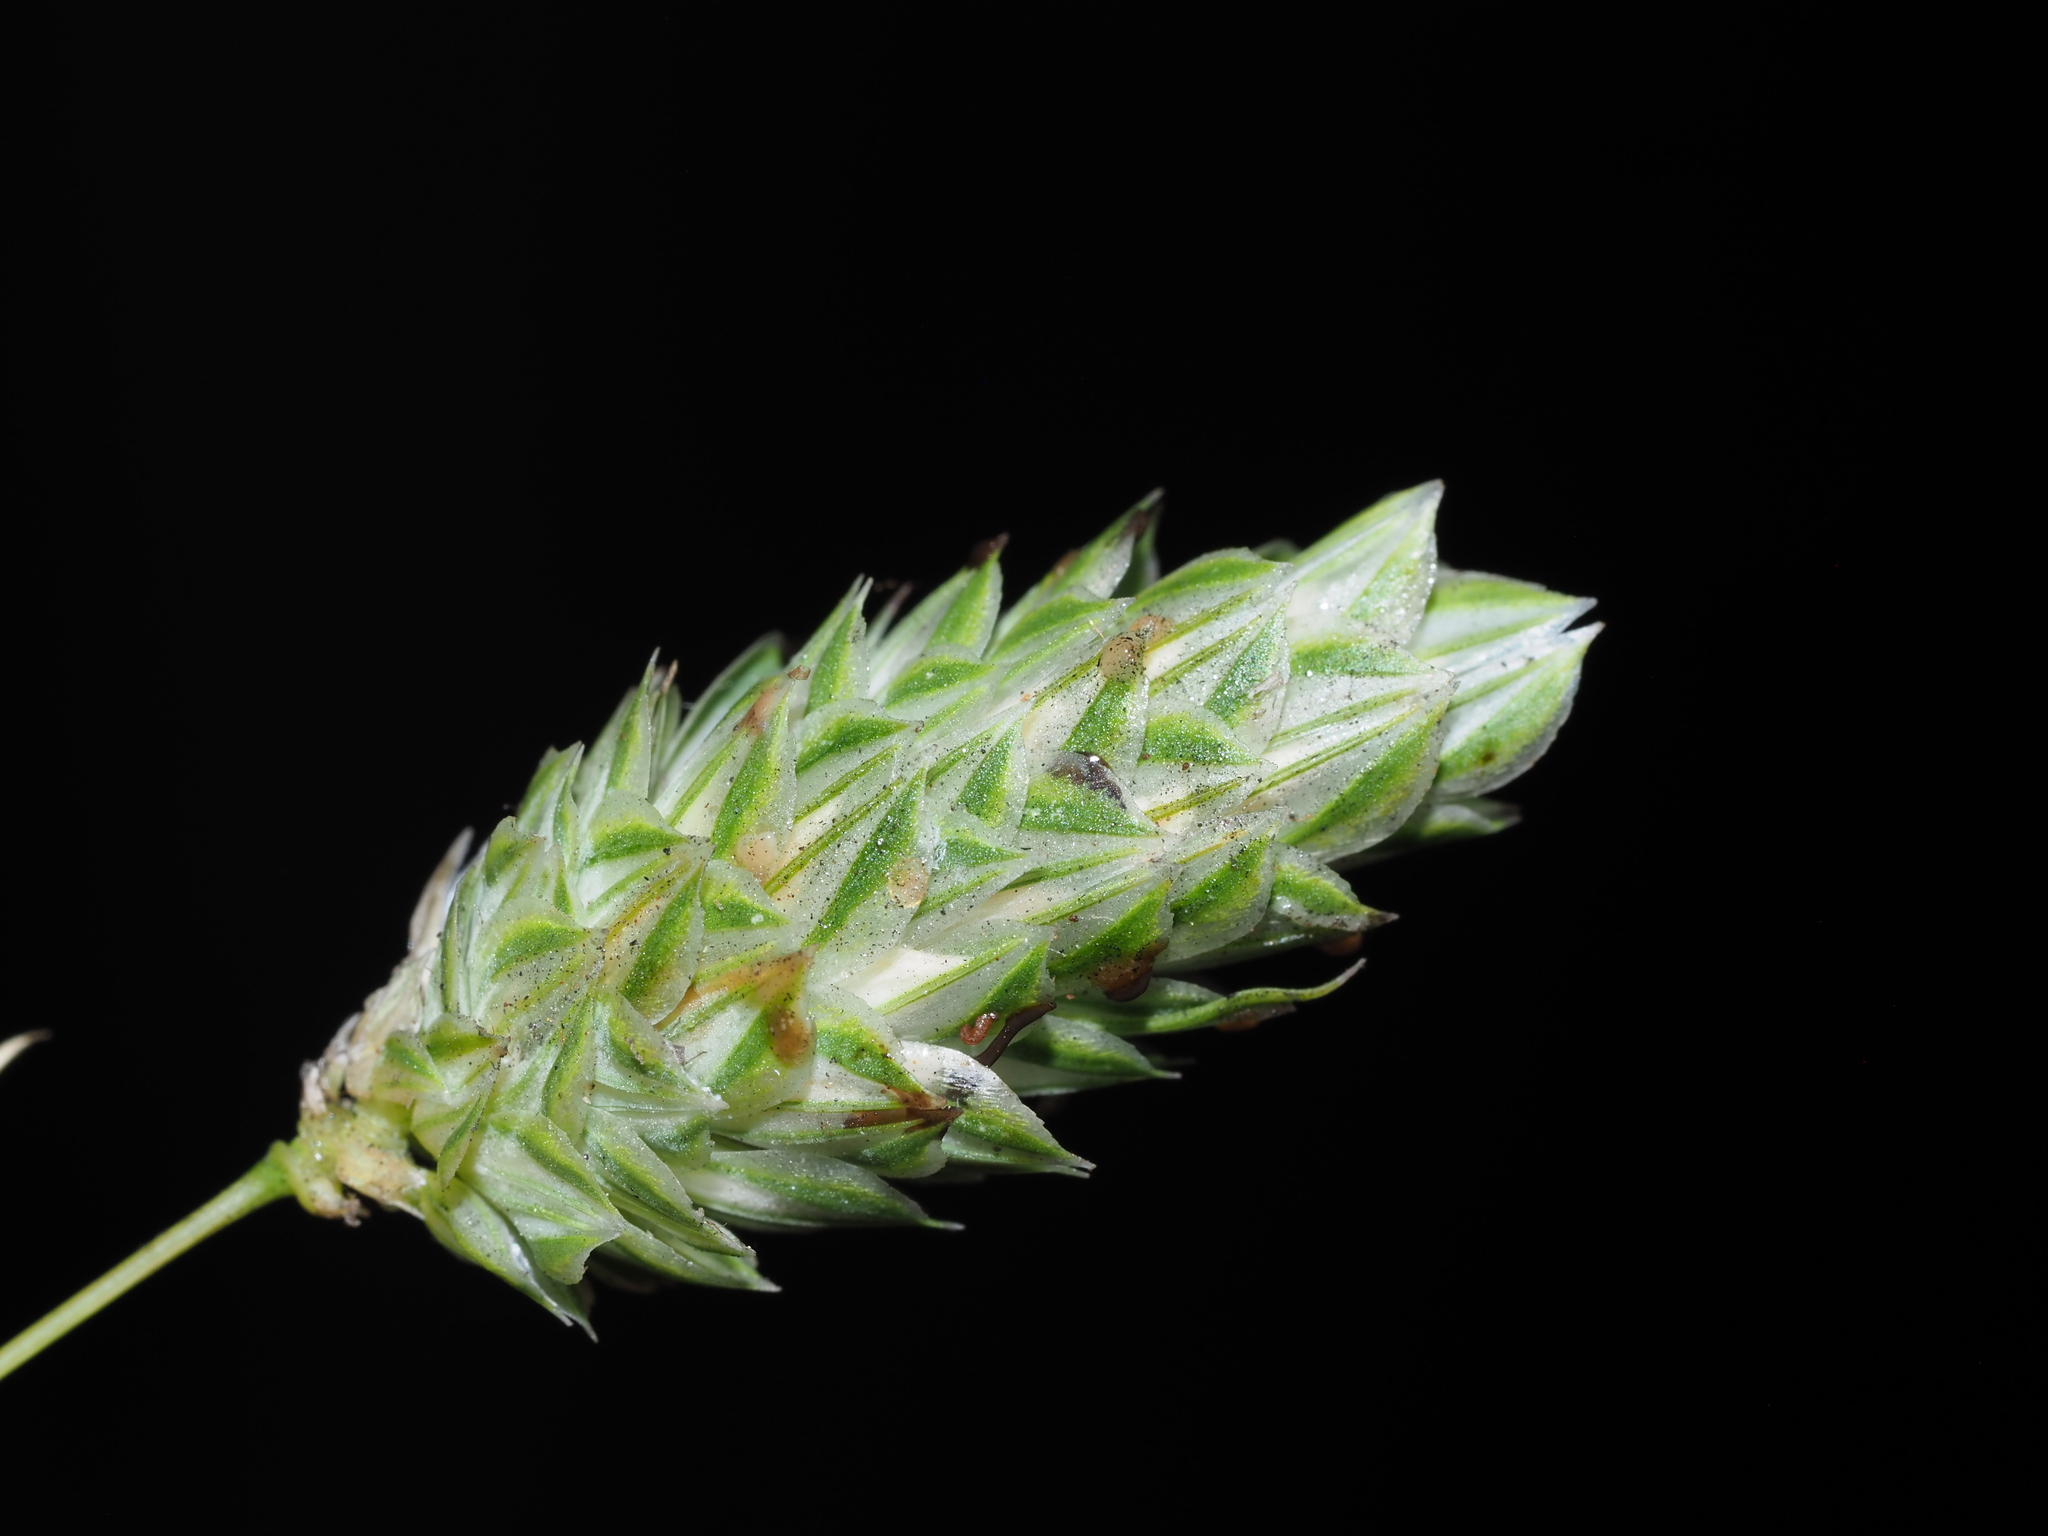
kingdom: Plantae
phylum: Tracheophyta
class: Liliopsida
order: Poales
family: Poaceae
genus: Phalaris
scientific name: Phalaris canariensis
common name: Annual canarygrass
